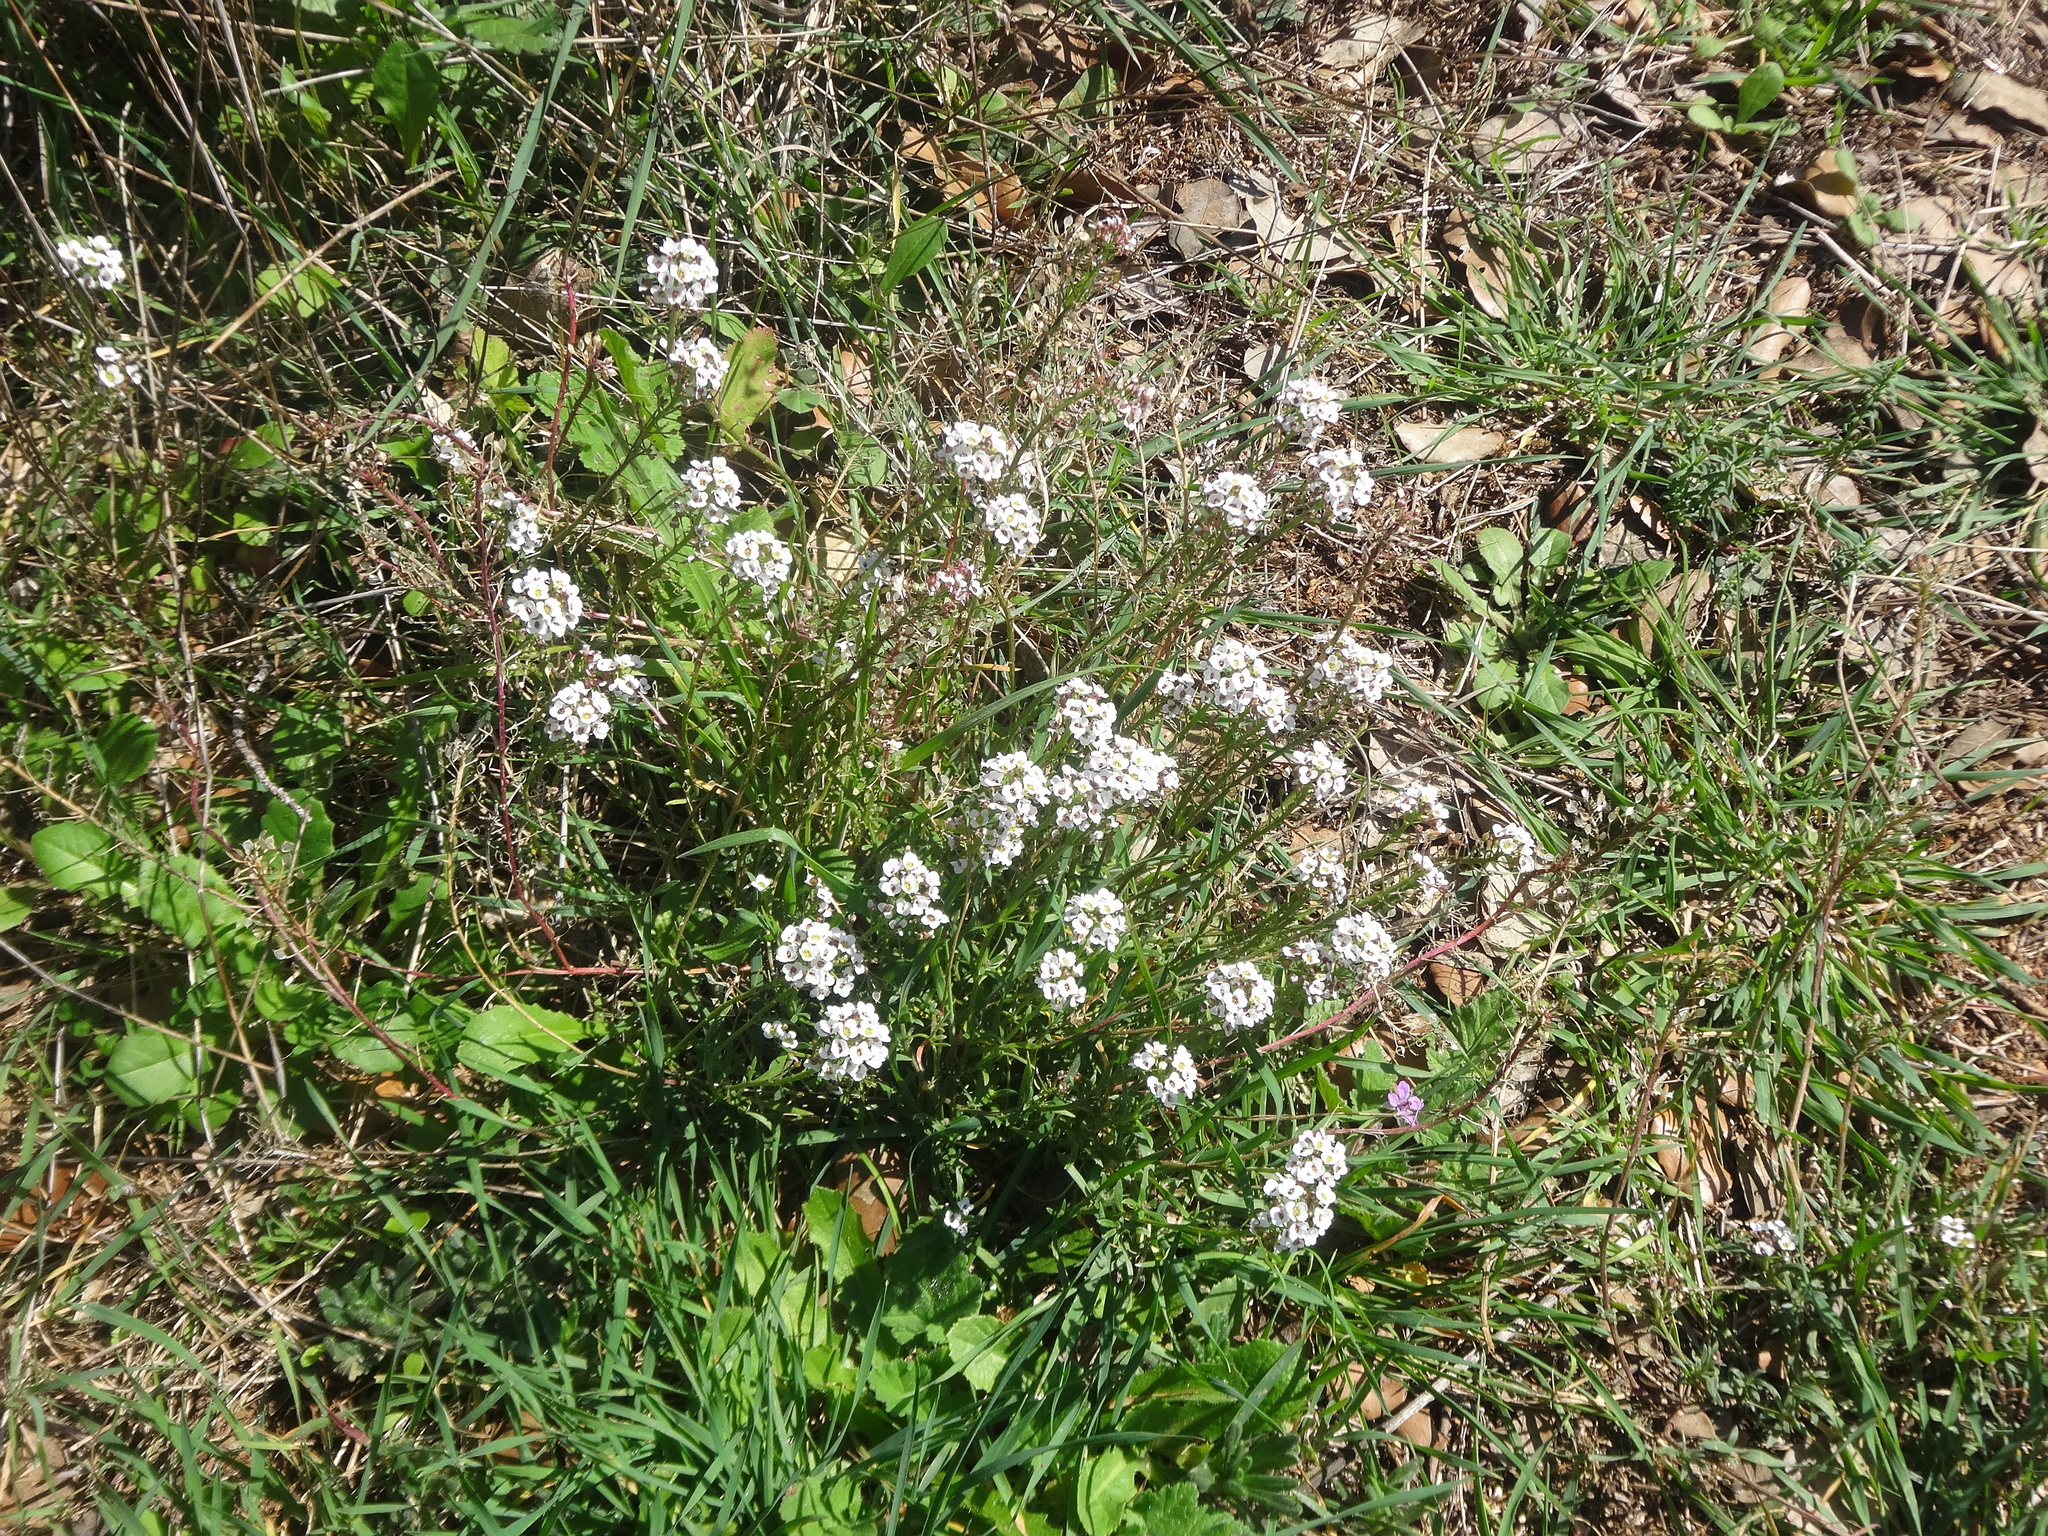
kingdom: Plantae
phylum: Tracheophyta
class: Magnoliopsida
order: Brassicales
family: Brassicaceae
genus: Lobularia
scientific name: Lobularia maritima
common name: Sweet alison
